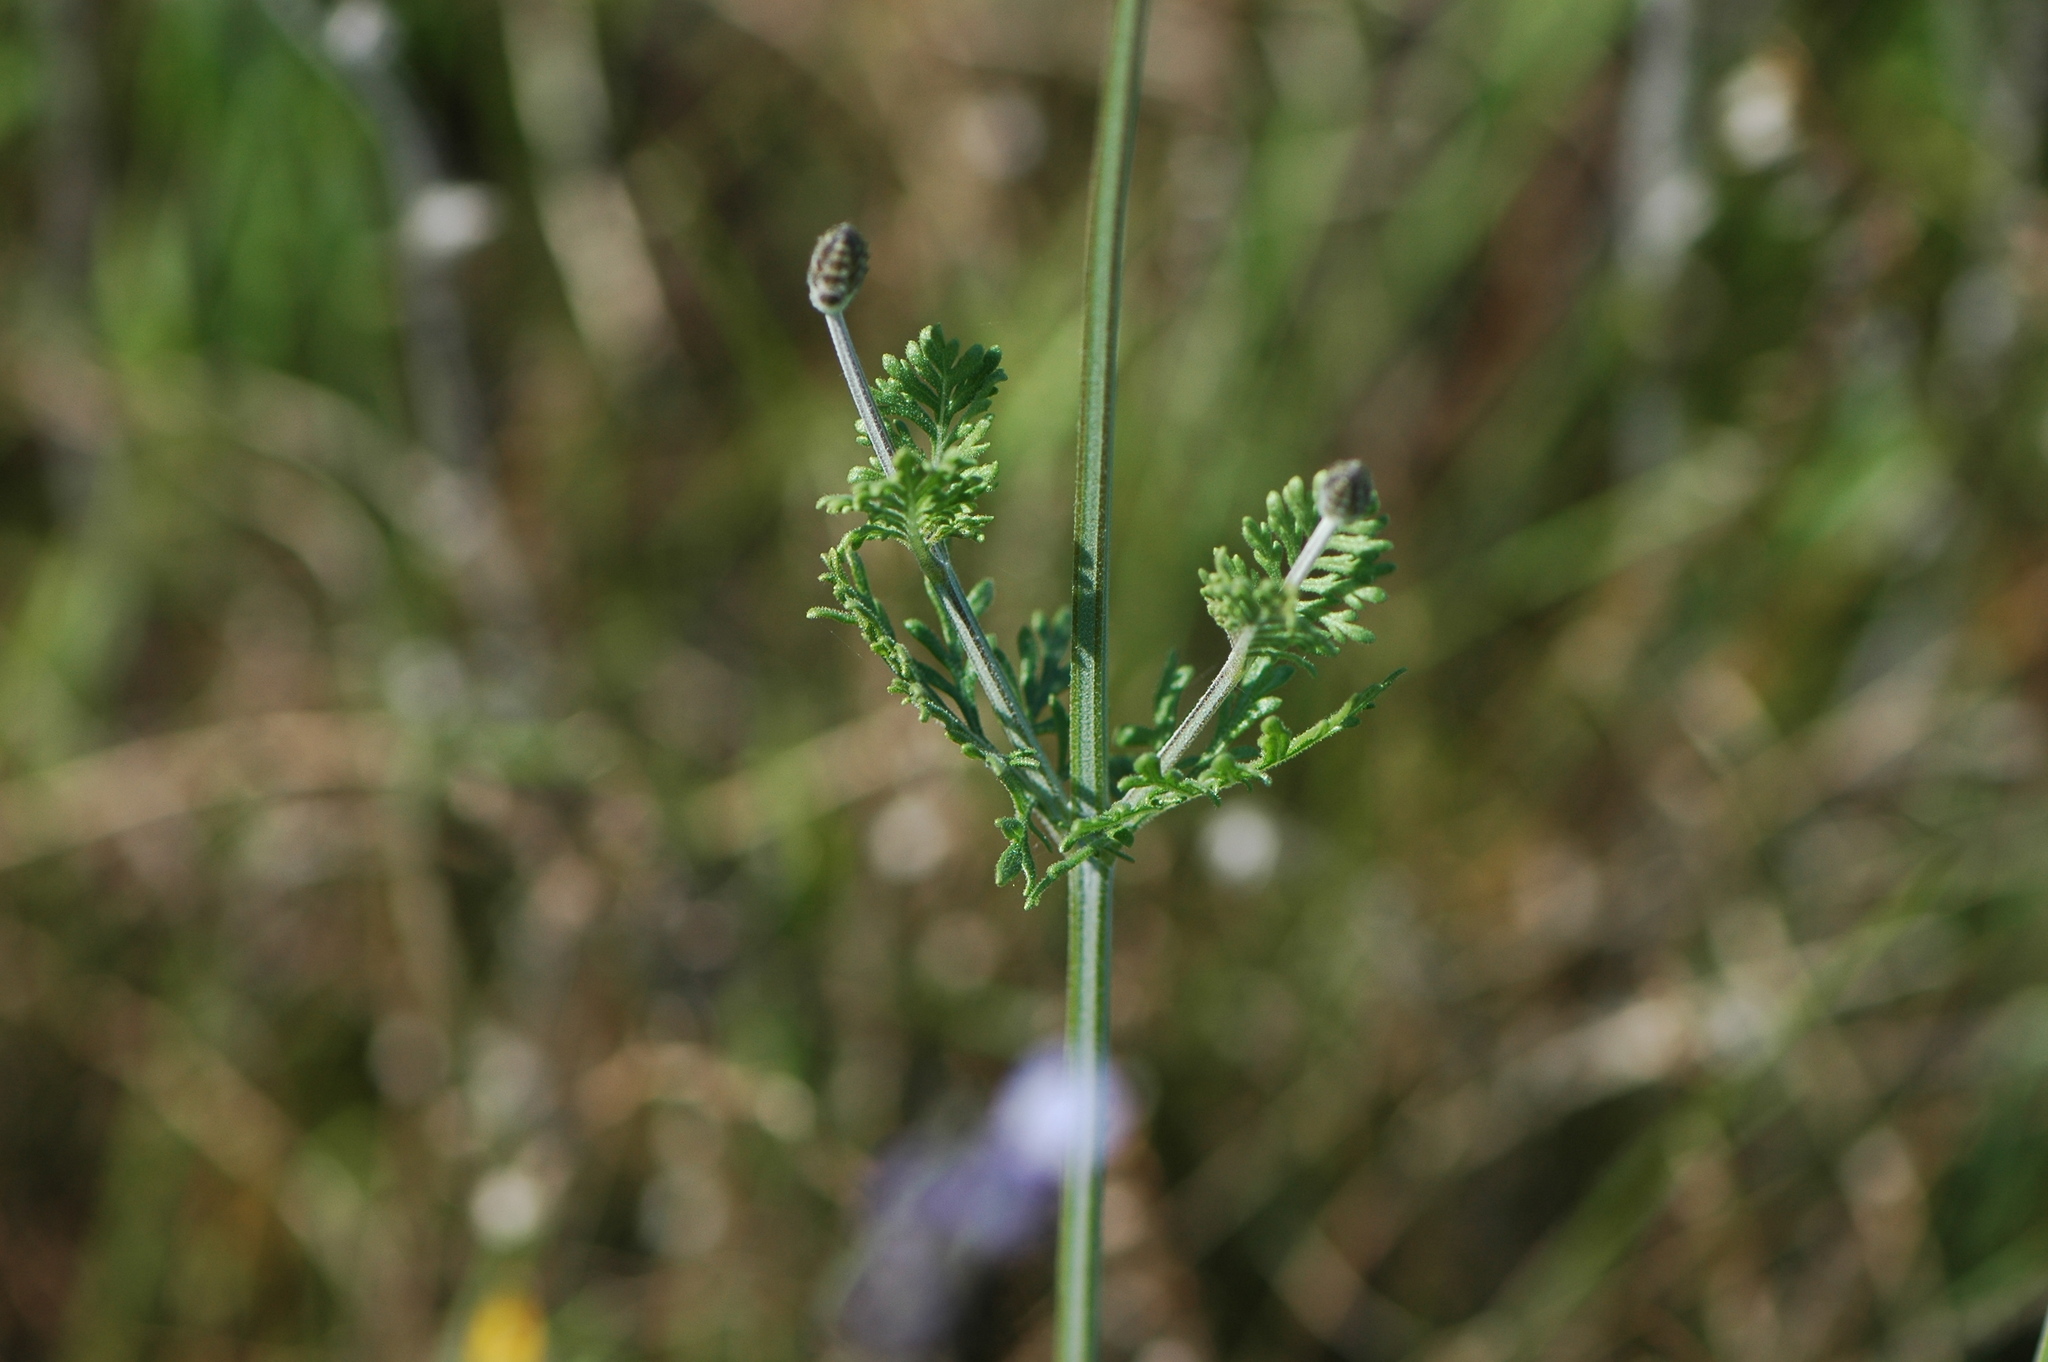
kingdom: Plantae
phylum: Tracheophyta
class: Magnoliopsida
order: Lamiales
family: Lamiaceae
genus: Lavandula
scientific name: Lavandula multifida
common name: Fern-leaf lavender
